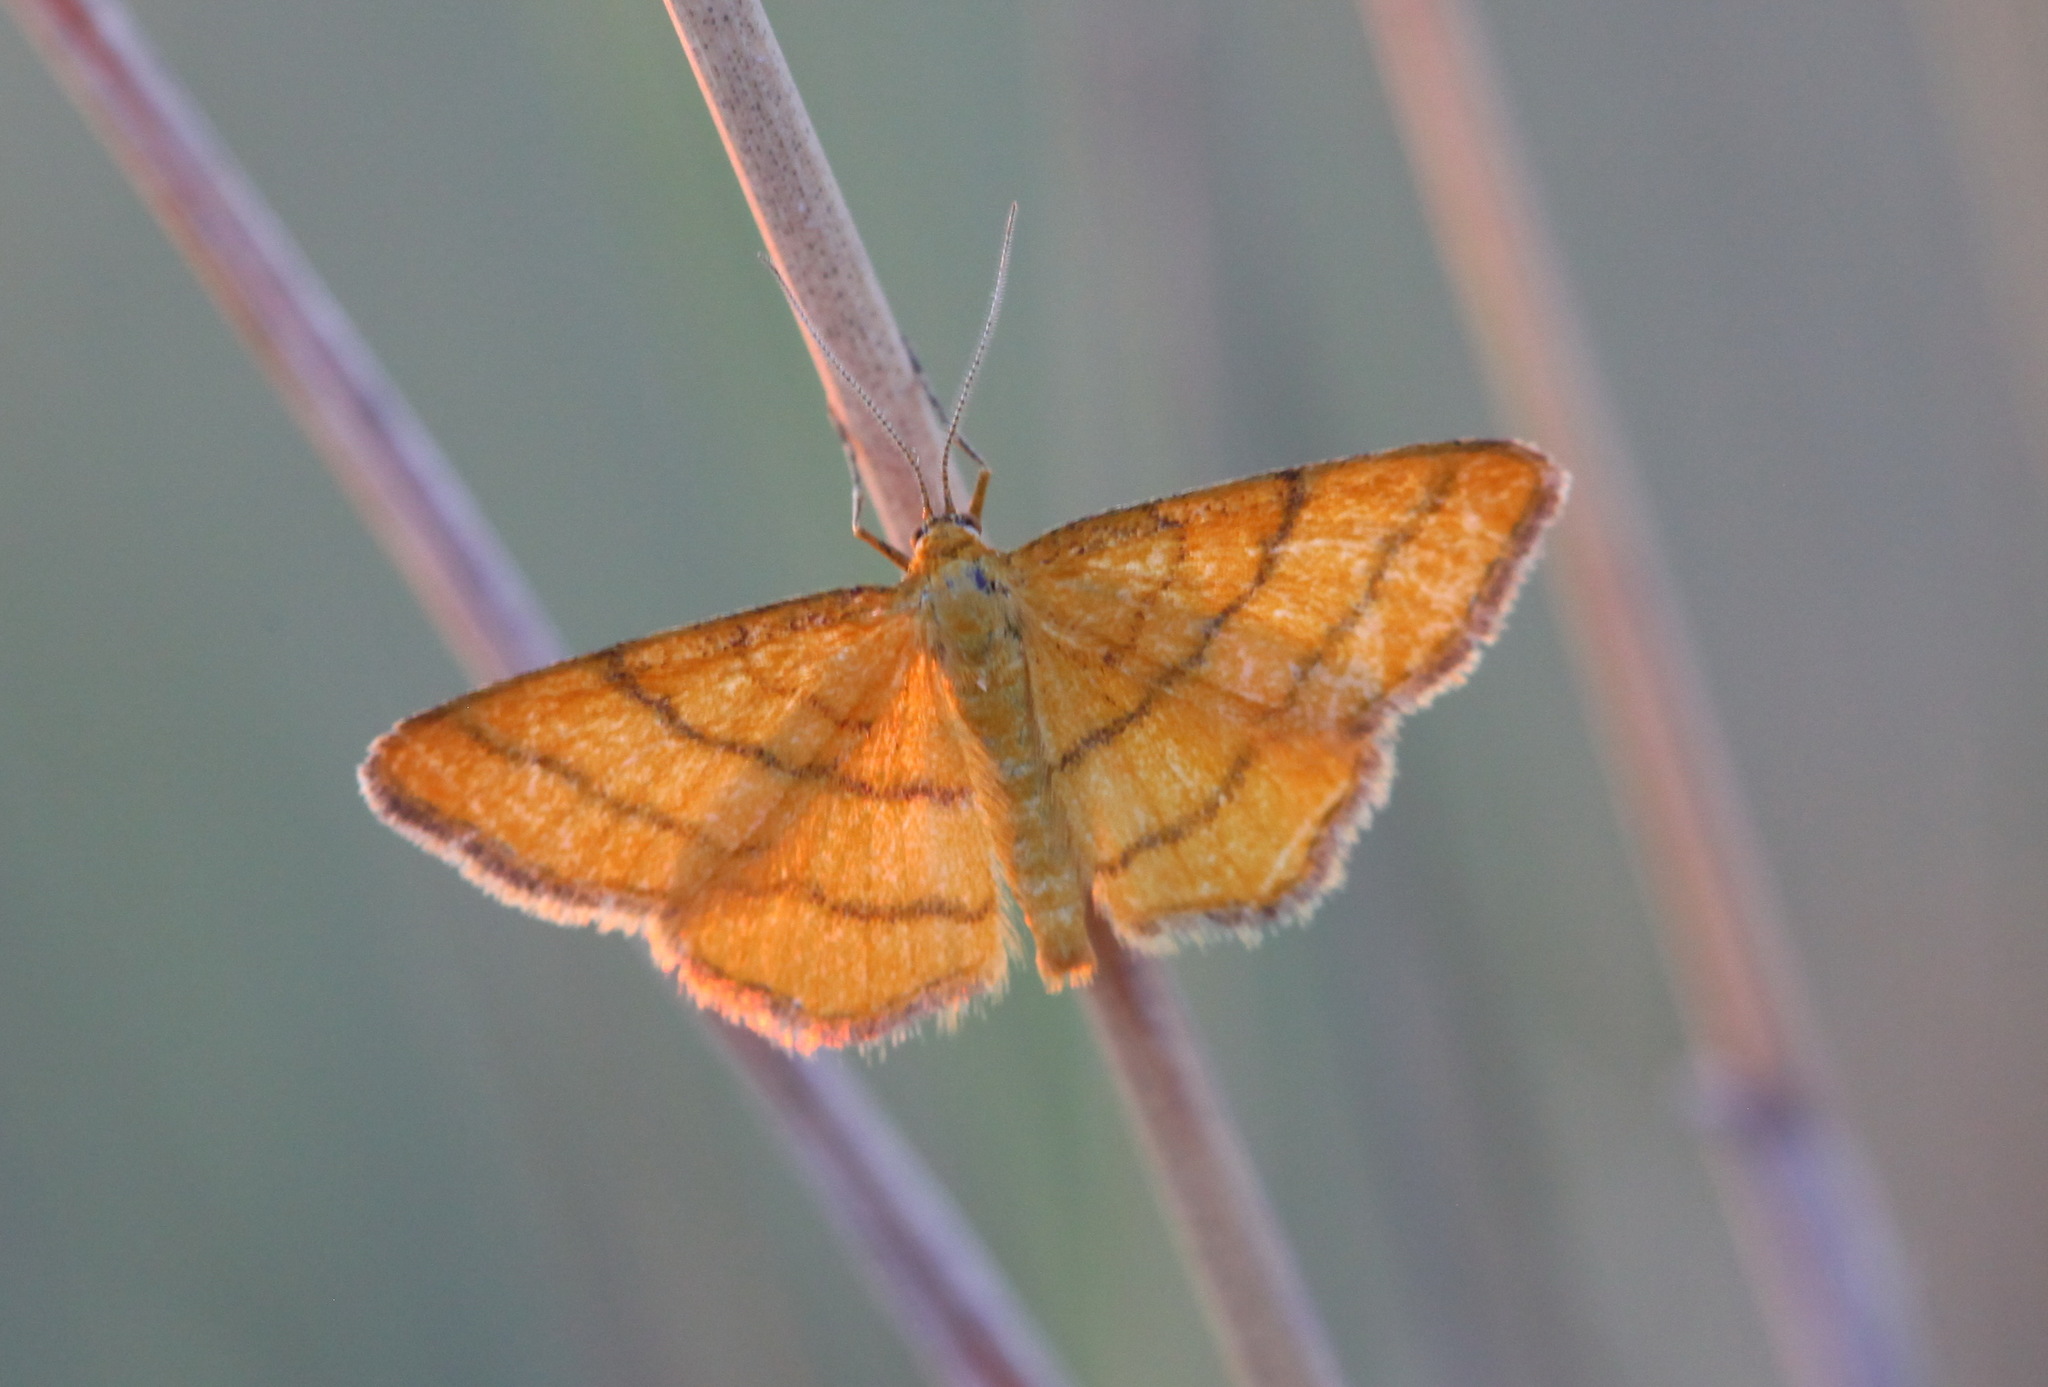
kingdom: Animalia
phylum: Arthropoda
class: Insecta
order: Lepidoptera
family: Geometridae
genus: Idaea
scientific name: Idaea aureolaria
